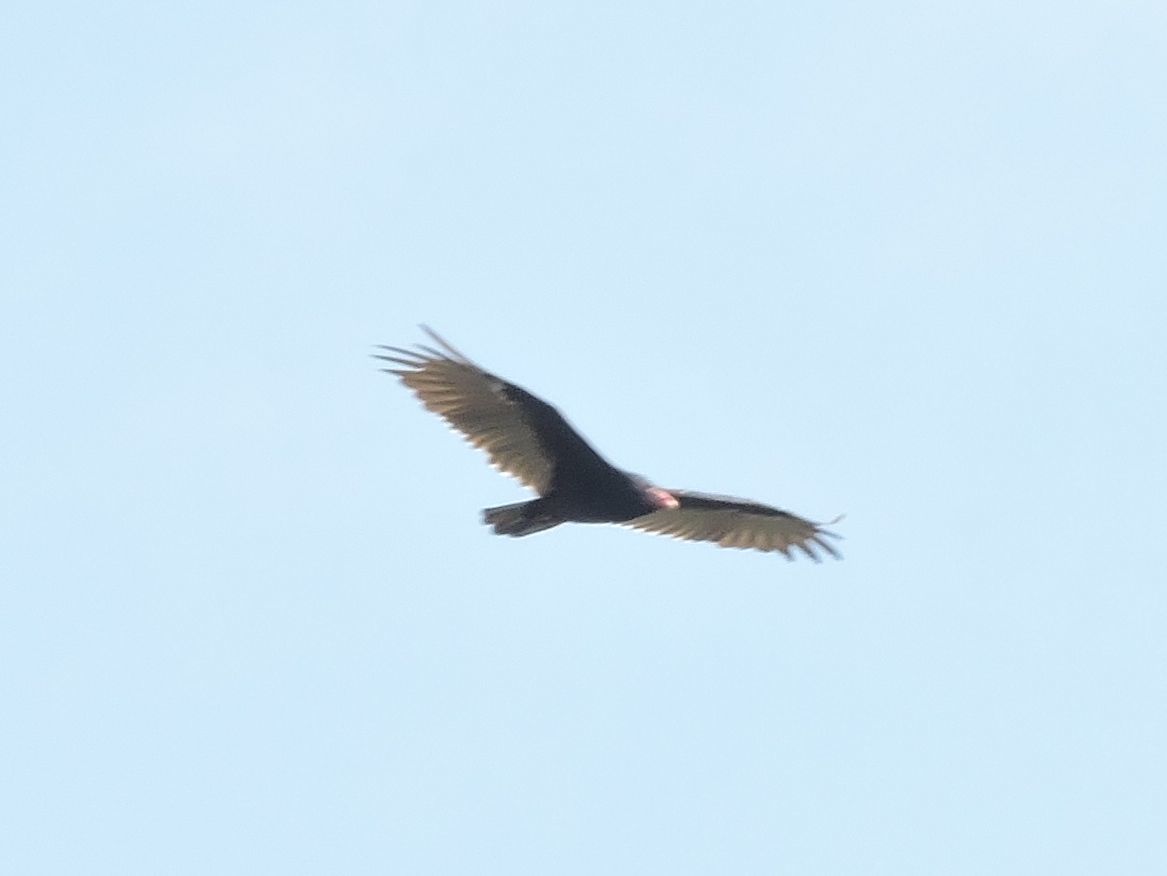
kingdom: Animalia
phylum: Chordata
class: Aves
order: Accipitriformes
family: Cathartidae
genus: Cathartes
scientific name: Cathartes aura
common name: Turkey vulture
